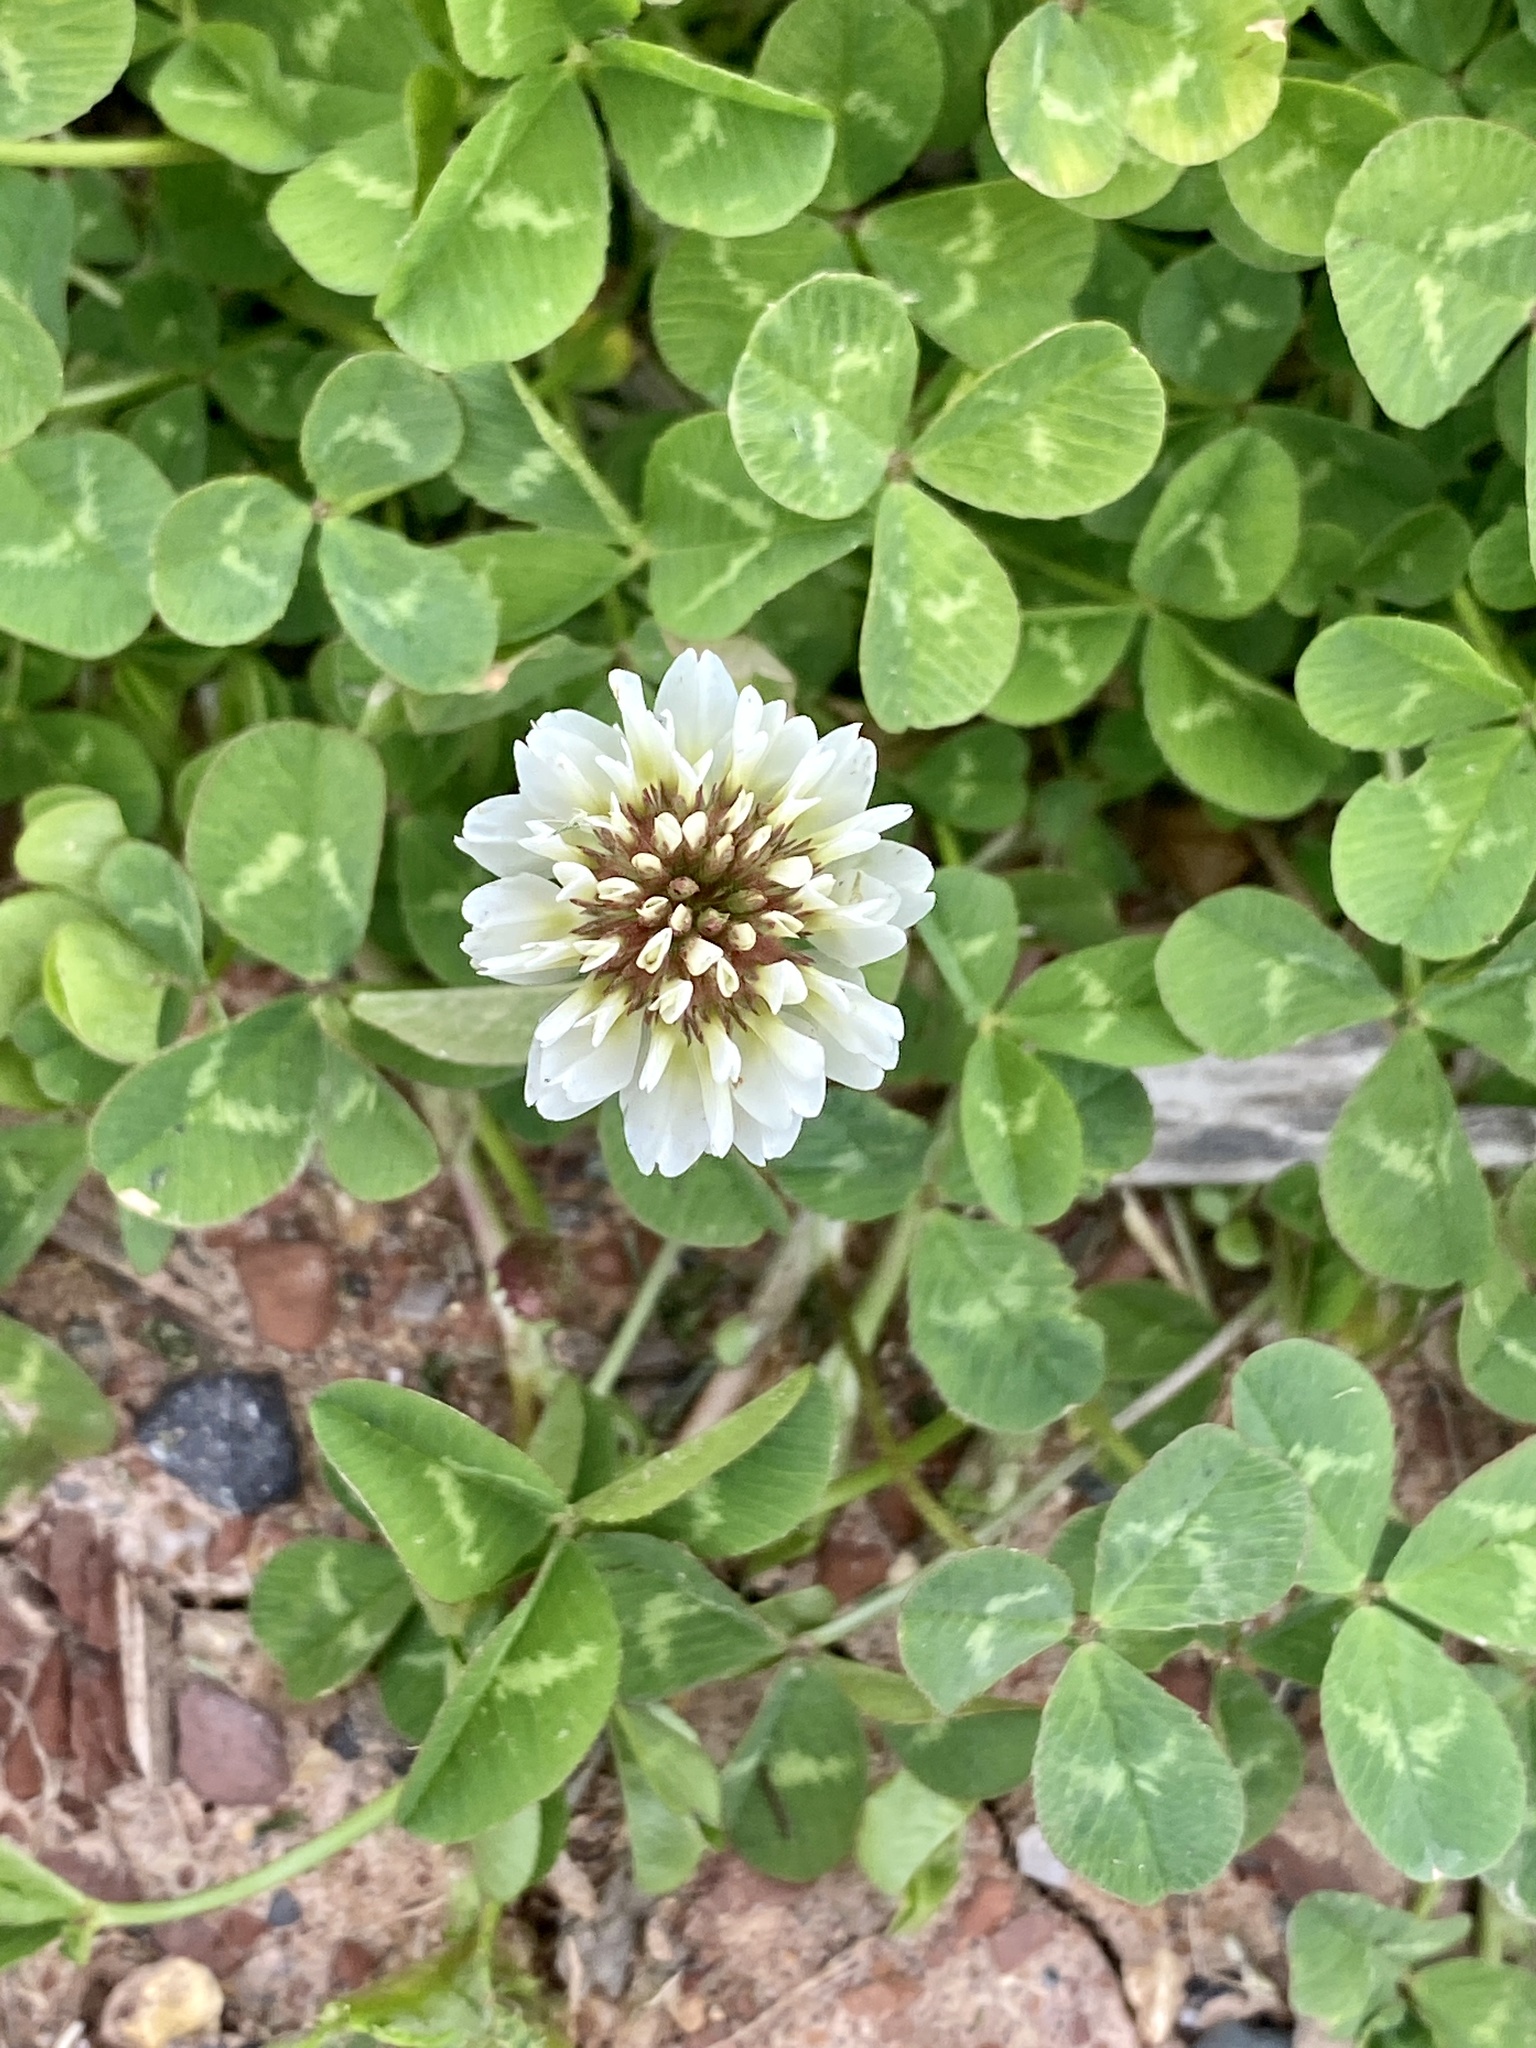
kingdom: Plantae
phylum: Tracheophyta
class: Magnoliopsida
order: Fabales
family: Fabaceae
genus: Trifolium
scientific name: Trifolium repens
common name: White clover
